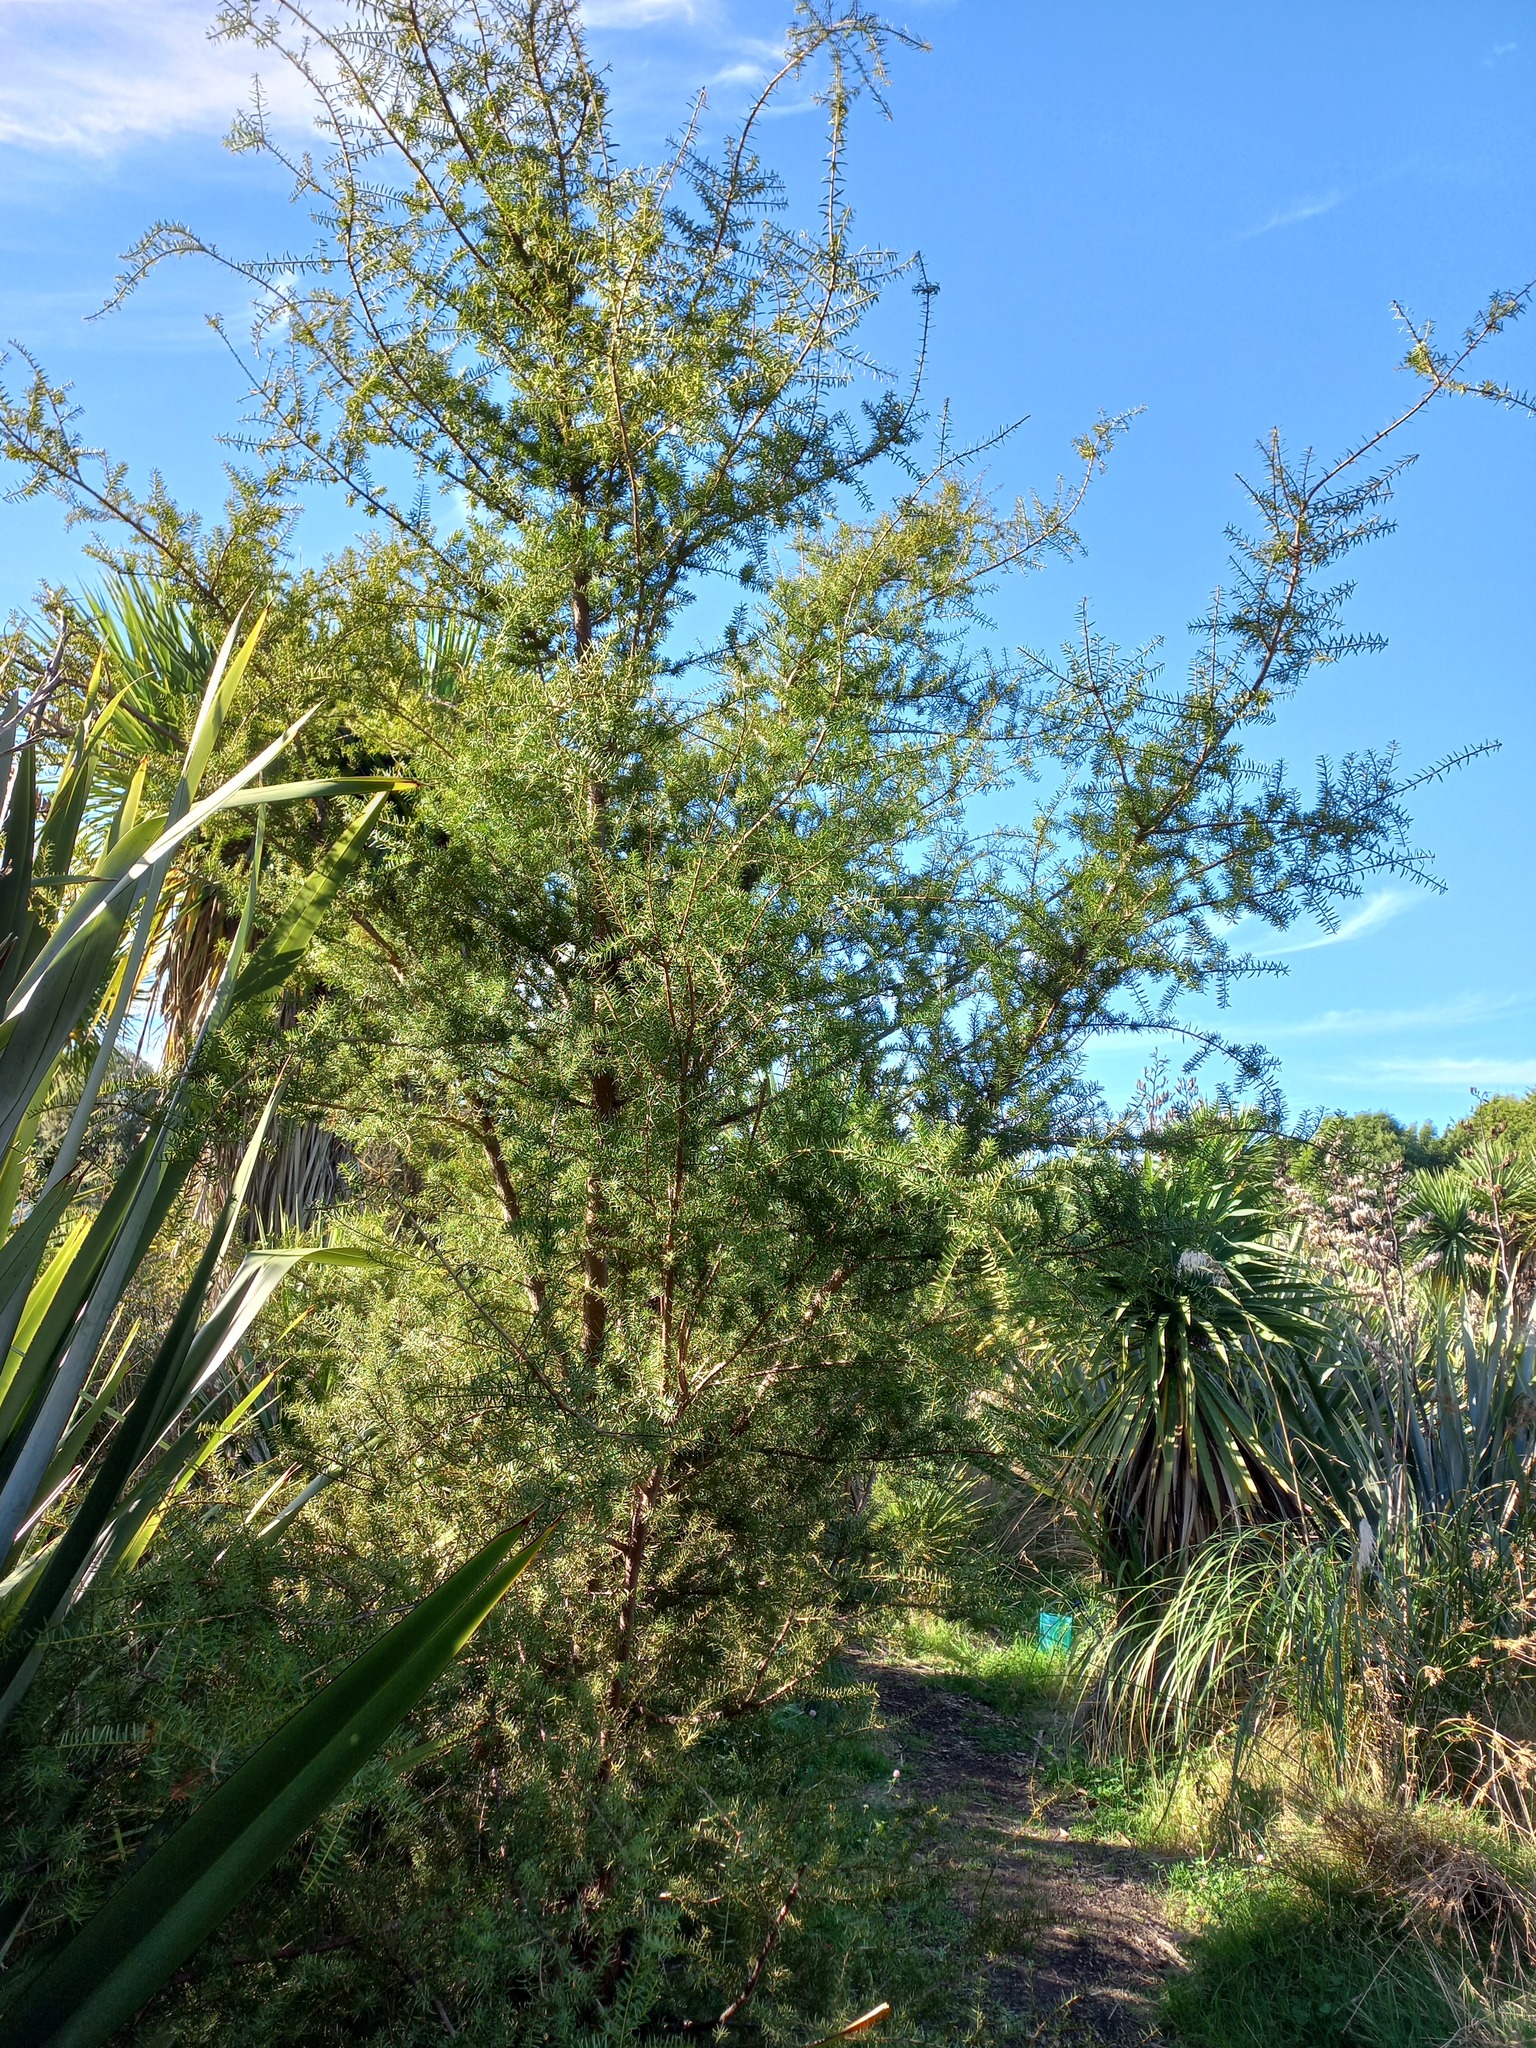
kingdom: Plantae
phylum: Tracheophyta
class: Pinopsida
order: Pinales
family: Podocarpaceae
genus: Podocarpus
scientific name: Podocarpus totara
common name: Totara
